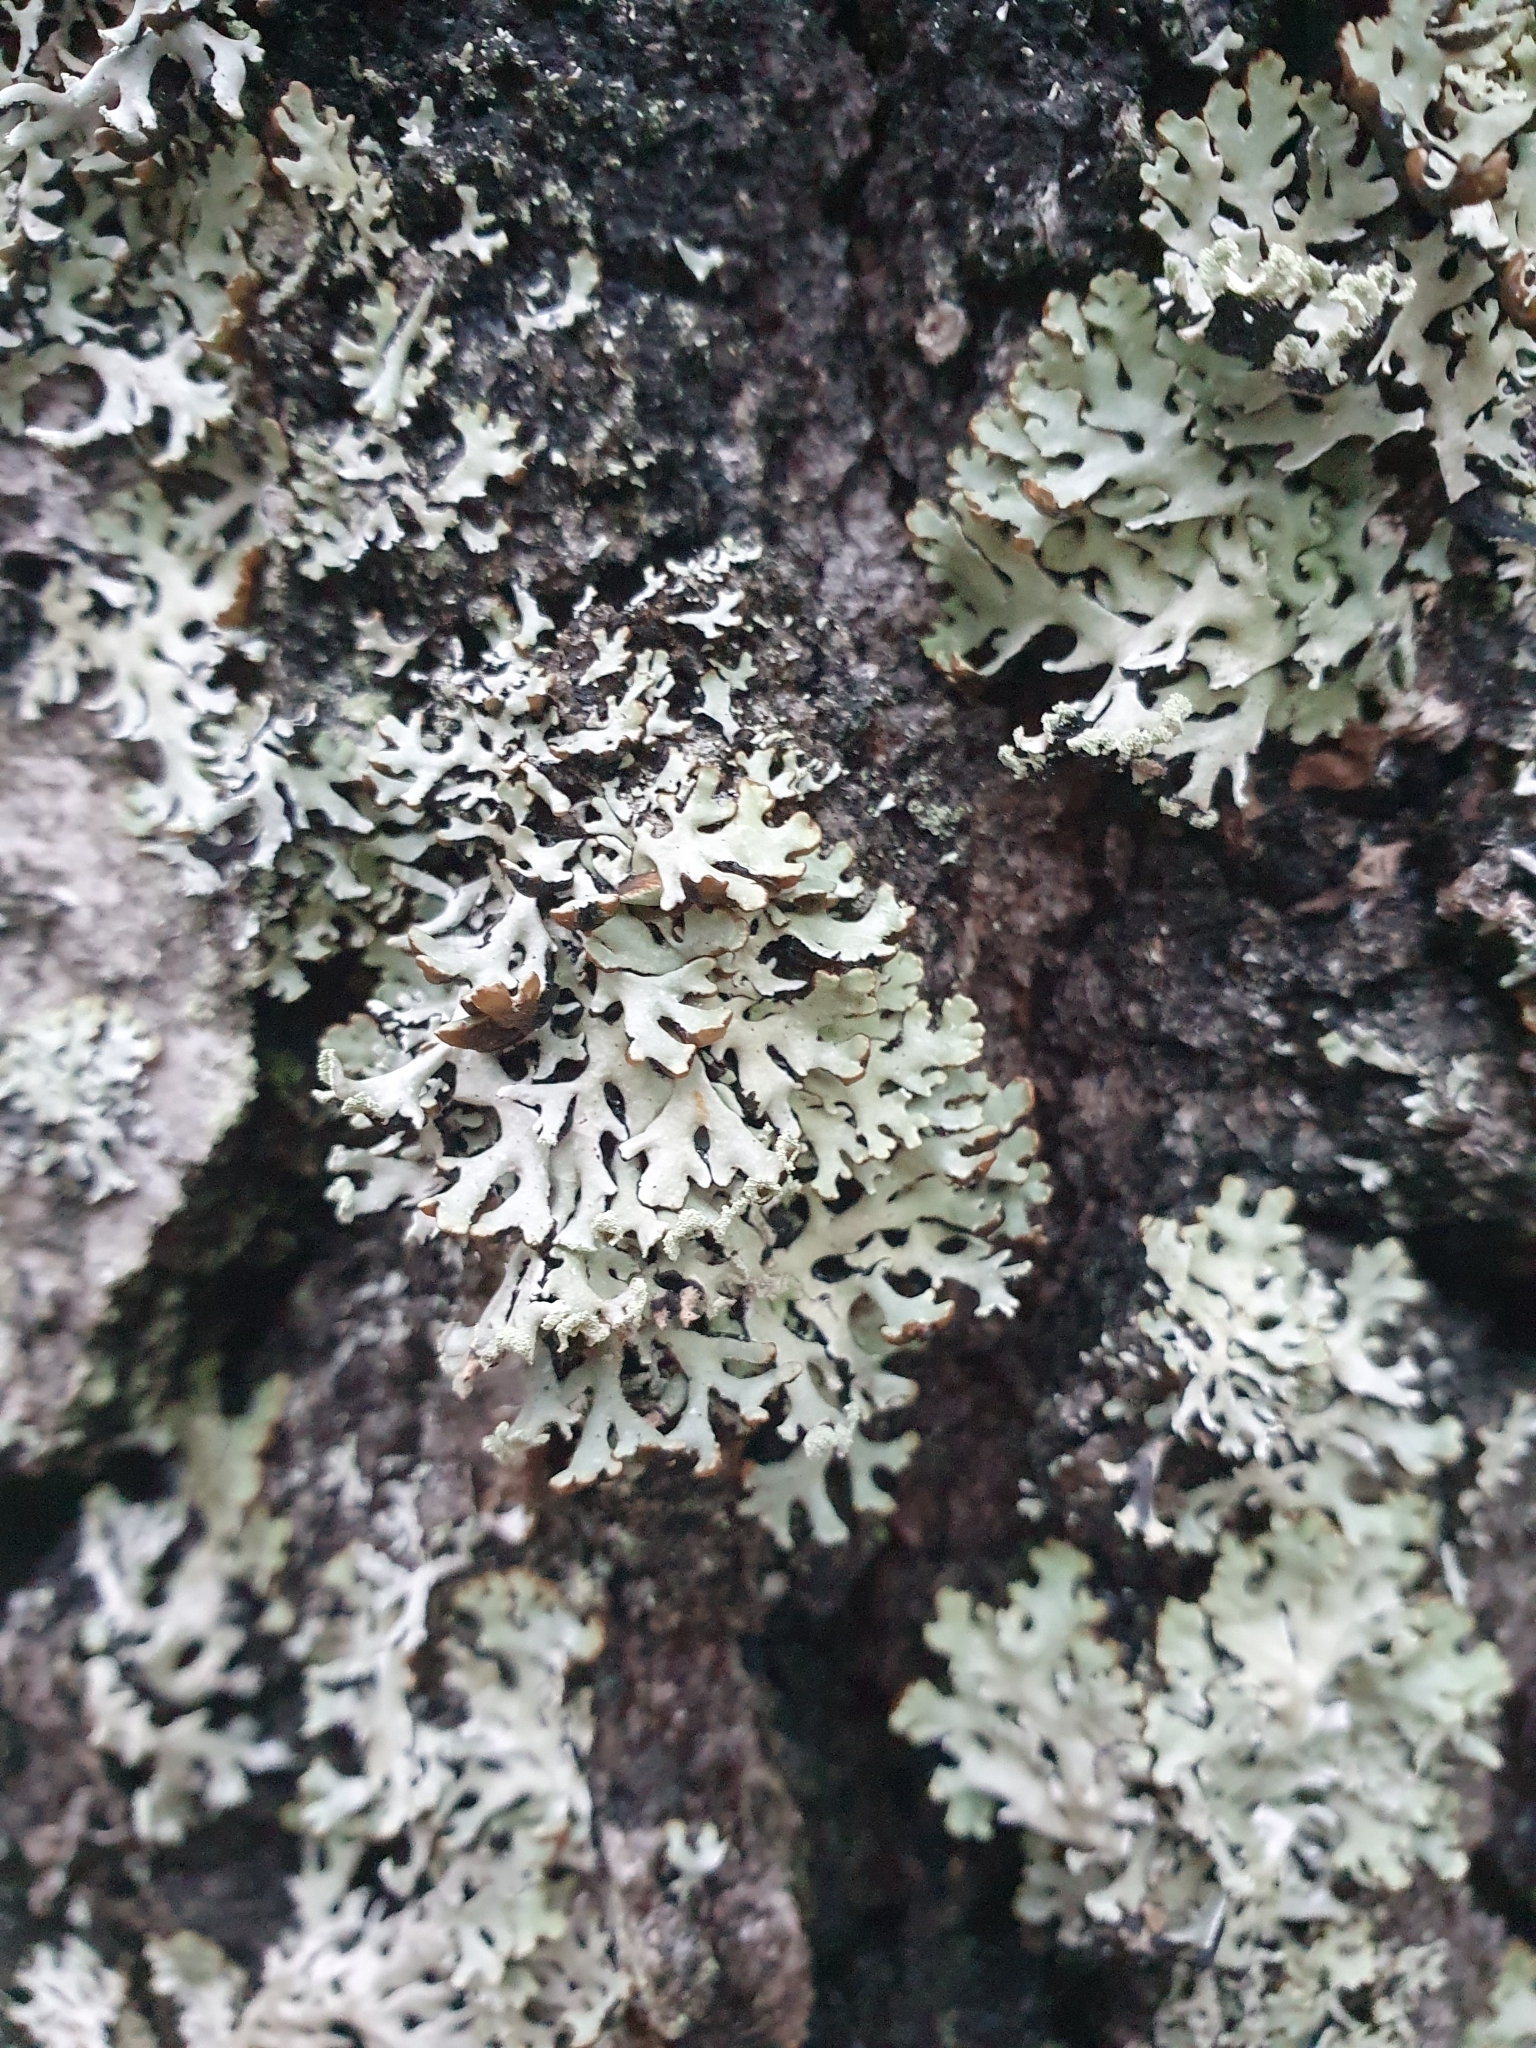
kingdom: Fungi
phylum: Ascomycota
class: Lecanoromycetes
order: Lecanorales
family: Parmeliaceae
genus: Hypogymnia
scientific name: Hypogymnia physodes
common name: Dark crottle
